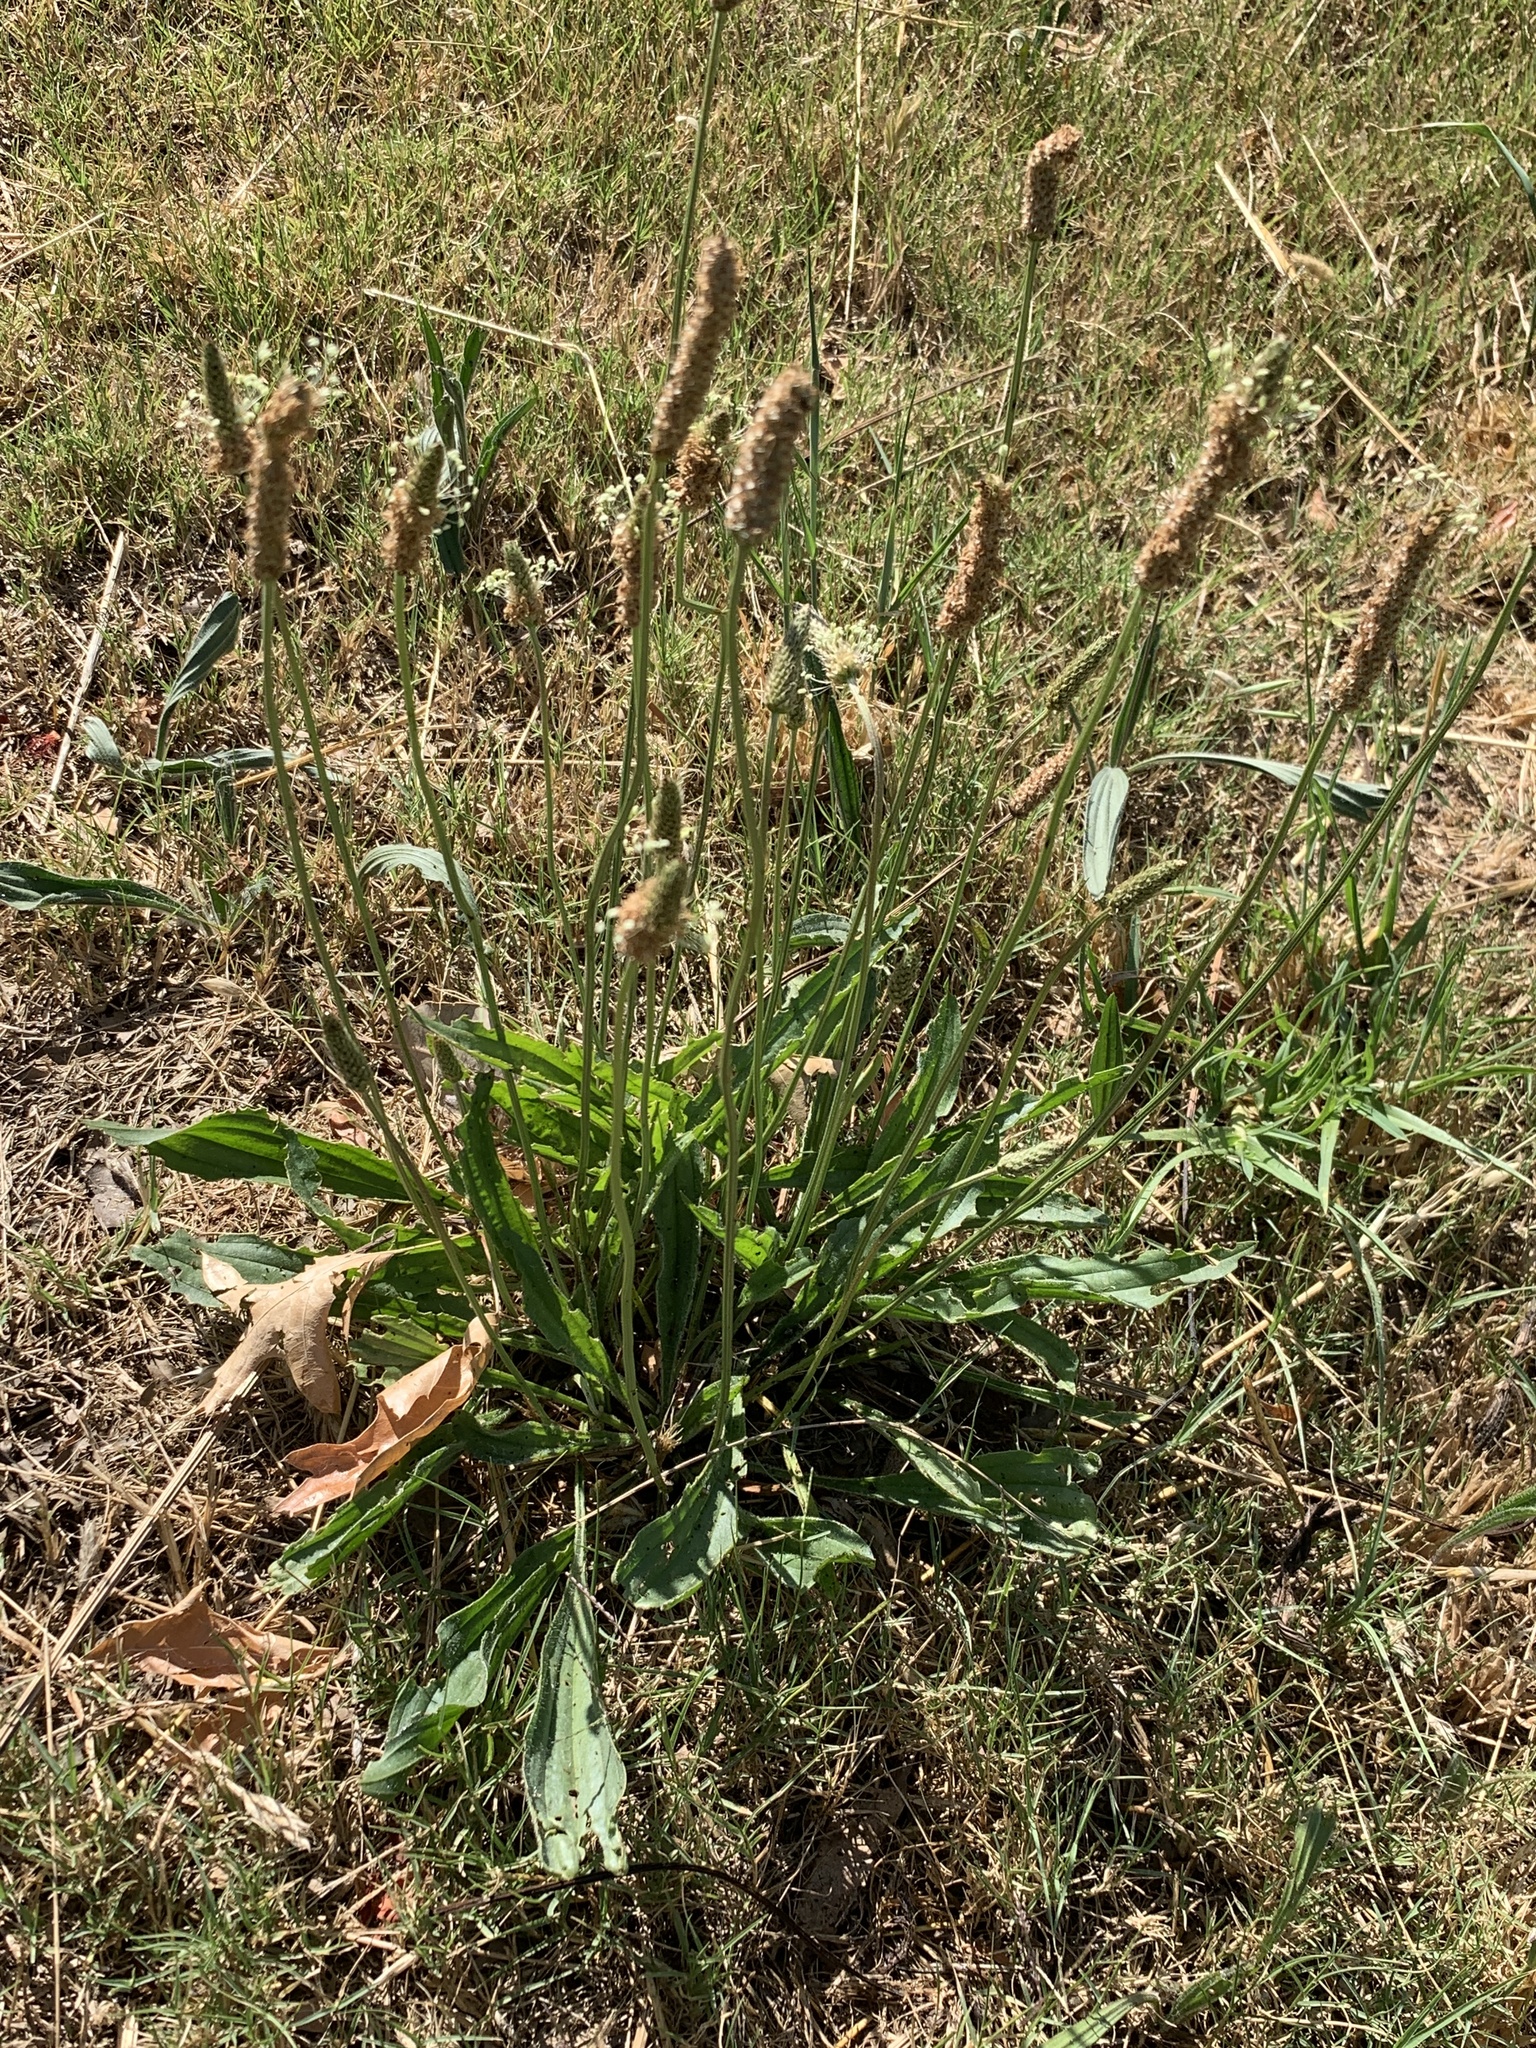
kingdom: Plantae
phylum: Tracheophyta
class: Magnoliopsida
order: Lamiales
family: Plantaginaceae
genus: Plantago
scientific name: Plantago lanceolata
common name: Ribwort plantain
